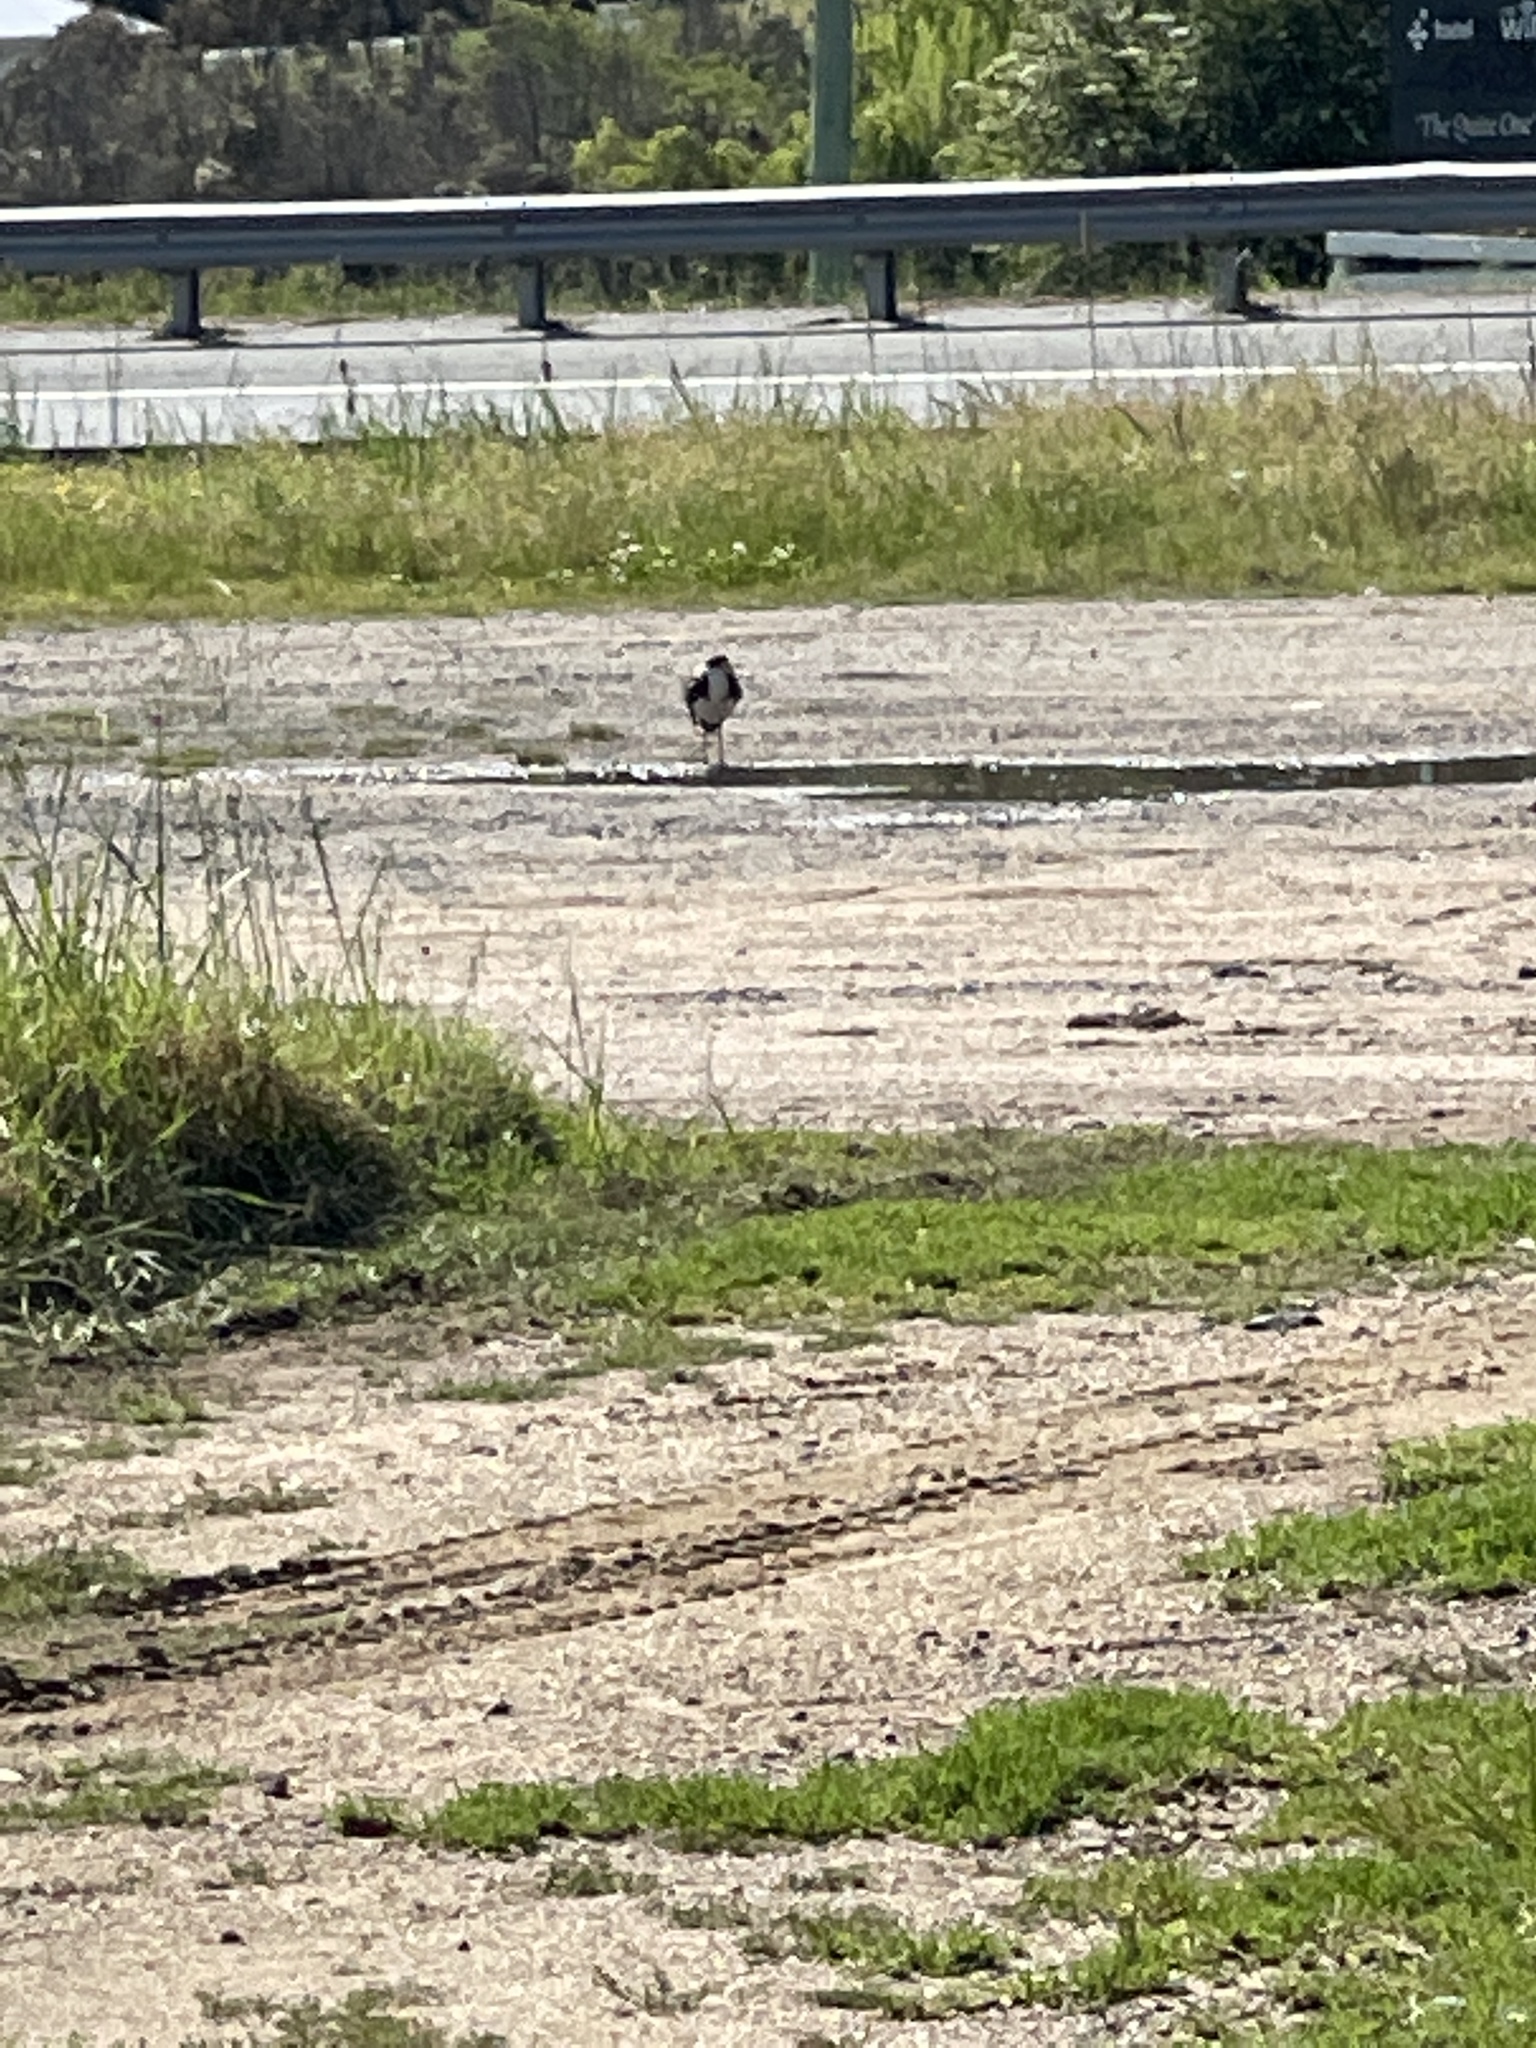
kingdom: Animalia
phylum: Chordata
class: Aves
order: Charadriiformes
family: Charadriidae
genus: Vanellus
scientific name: Vanellus miles
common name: Masked lapwing
